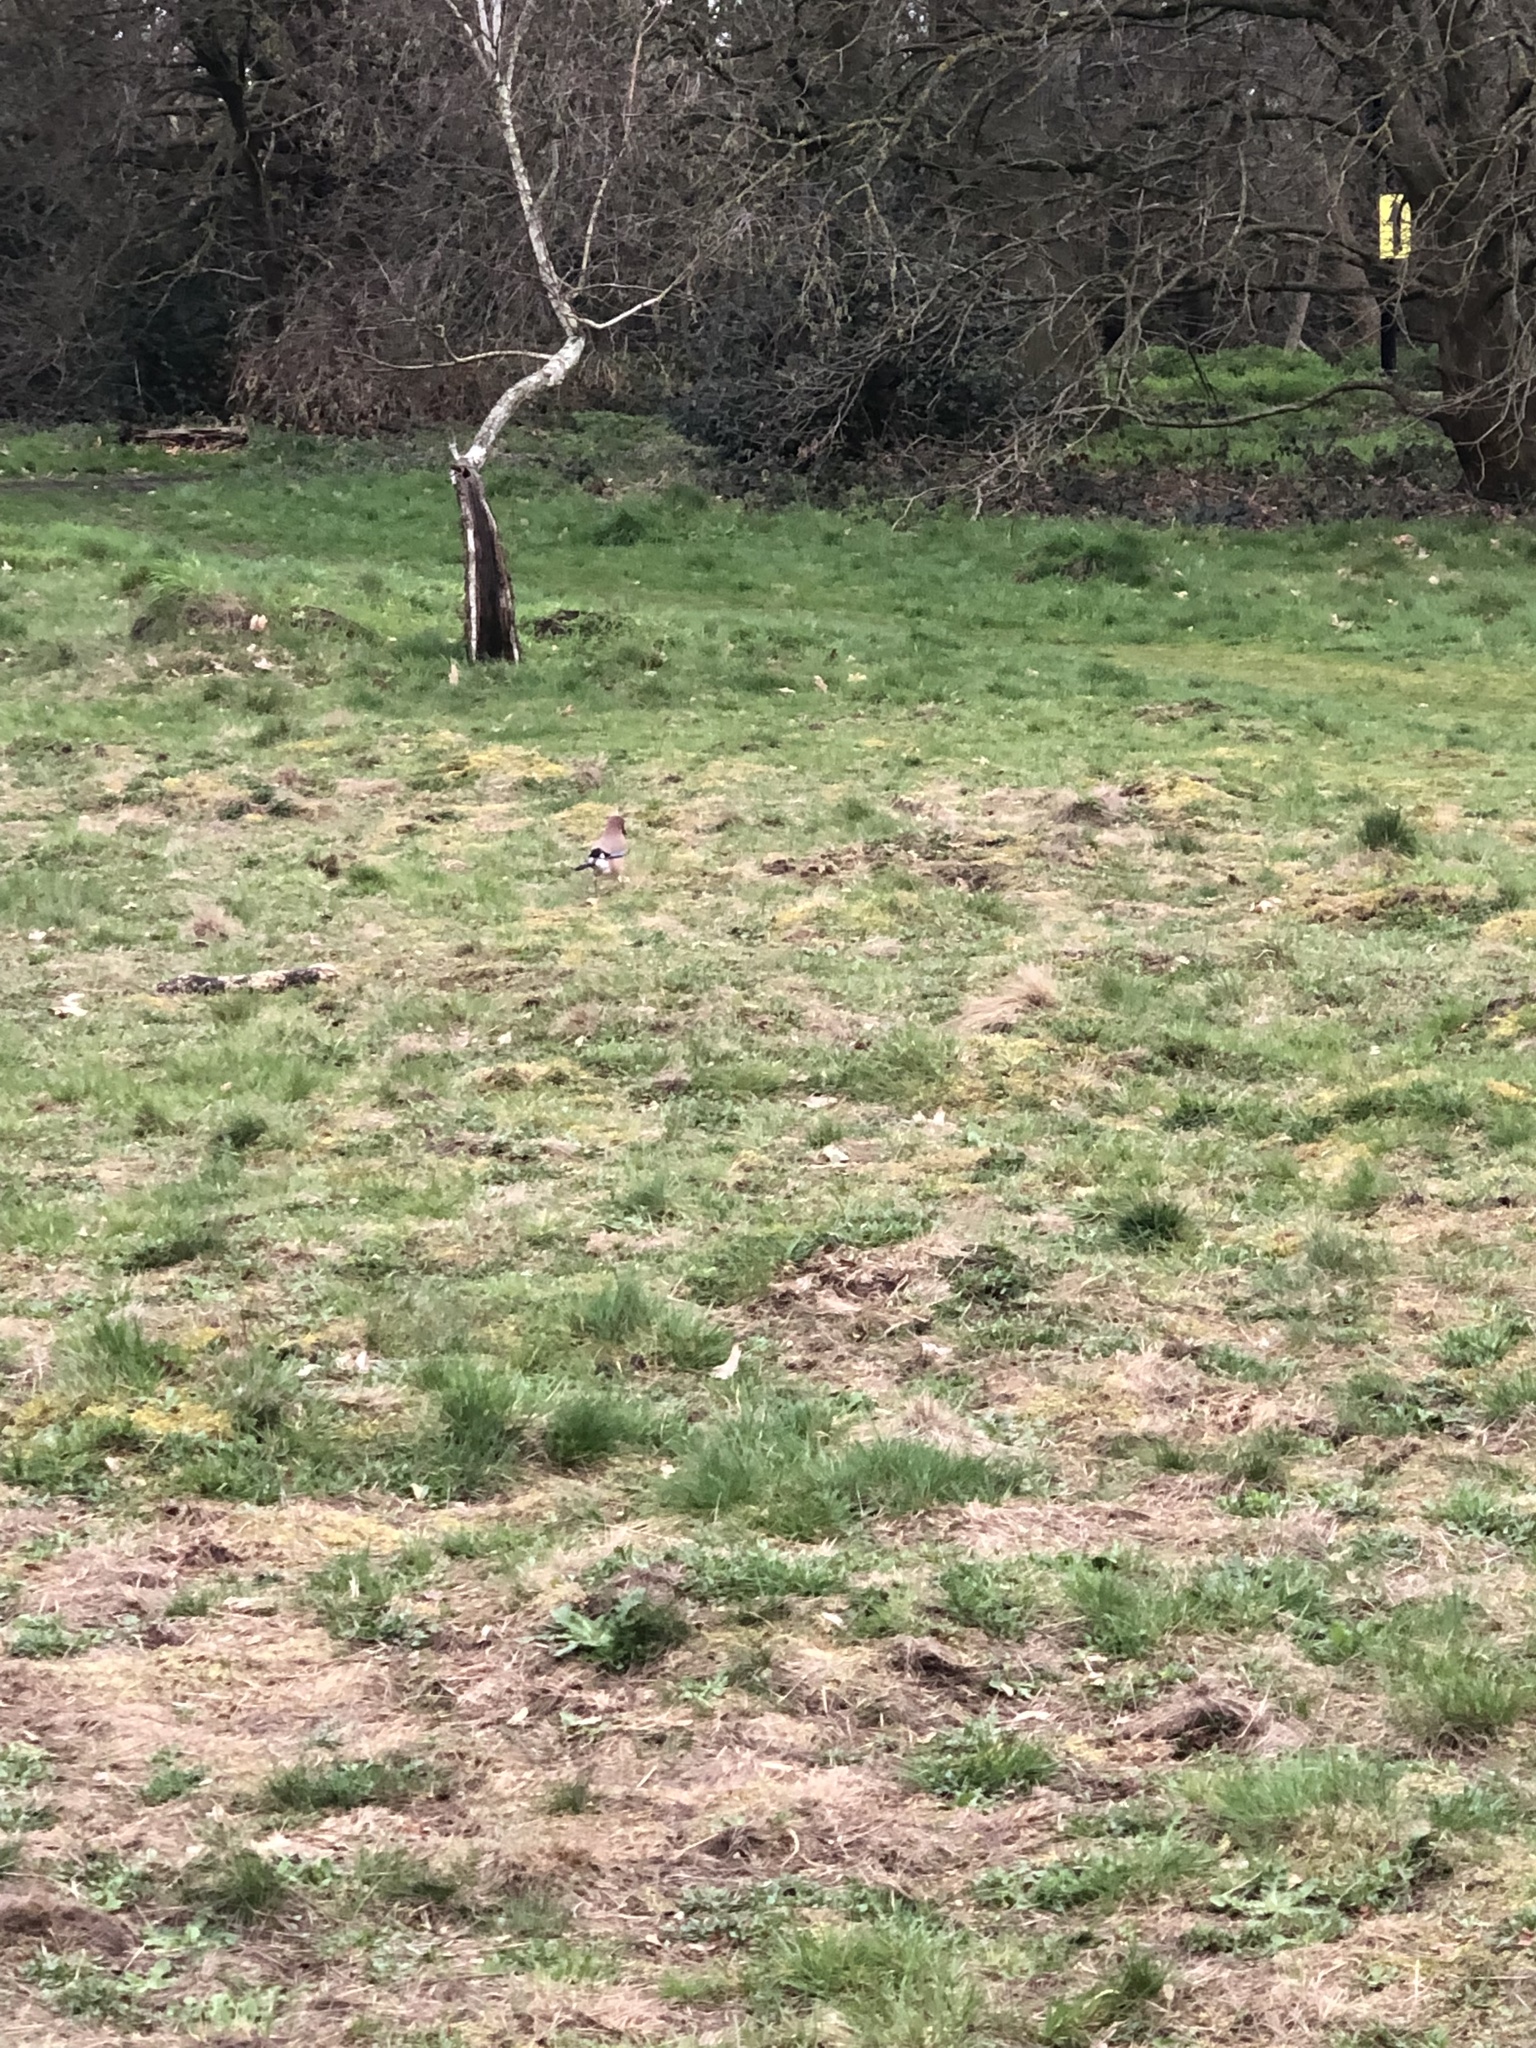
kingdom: Animalia
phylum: Chordata
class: Aves
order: Passeriformes
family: Corvidae
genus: Garrulus
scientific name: Garrulus glandarius
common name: Eurasian jay
